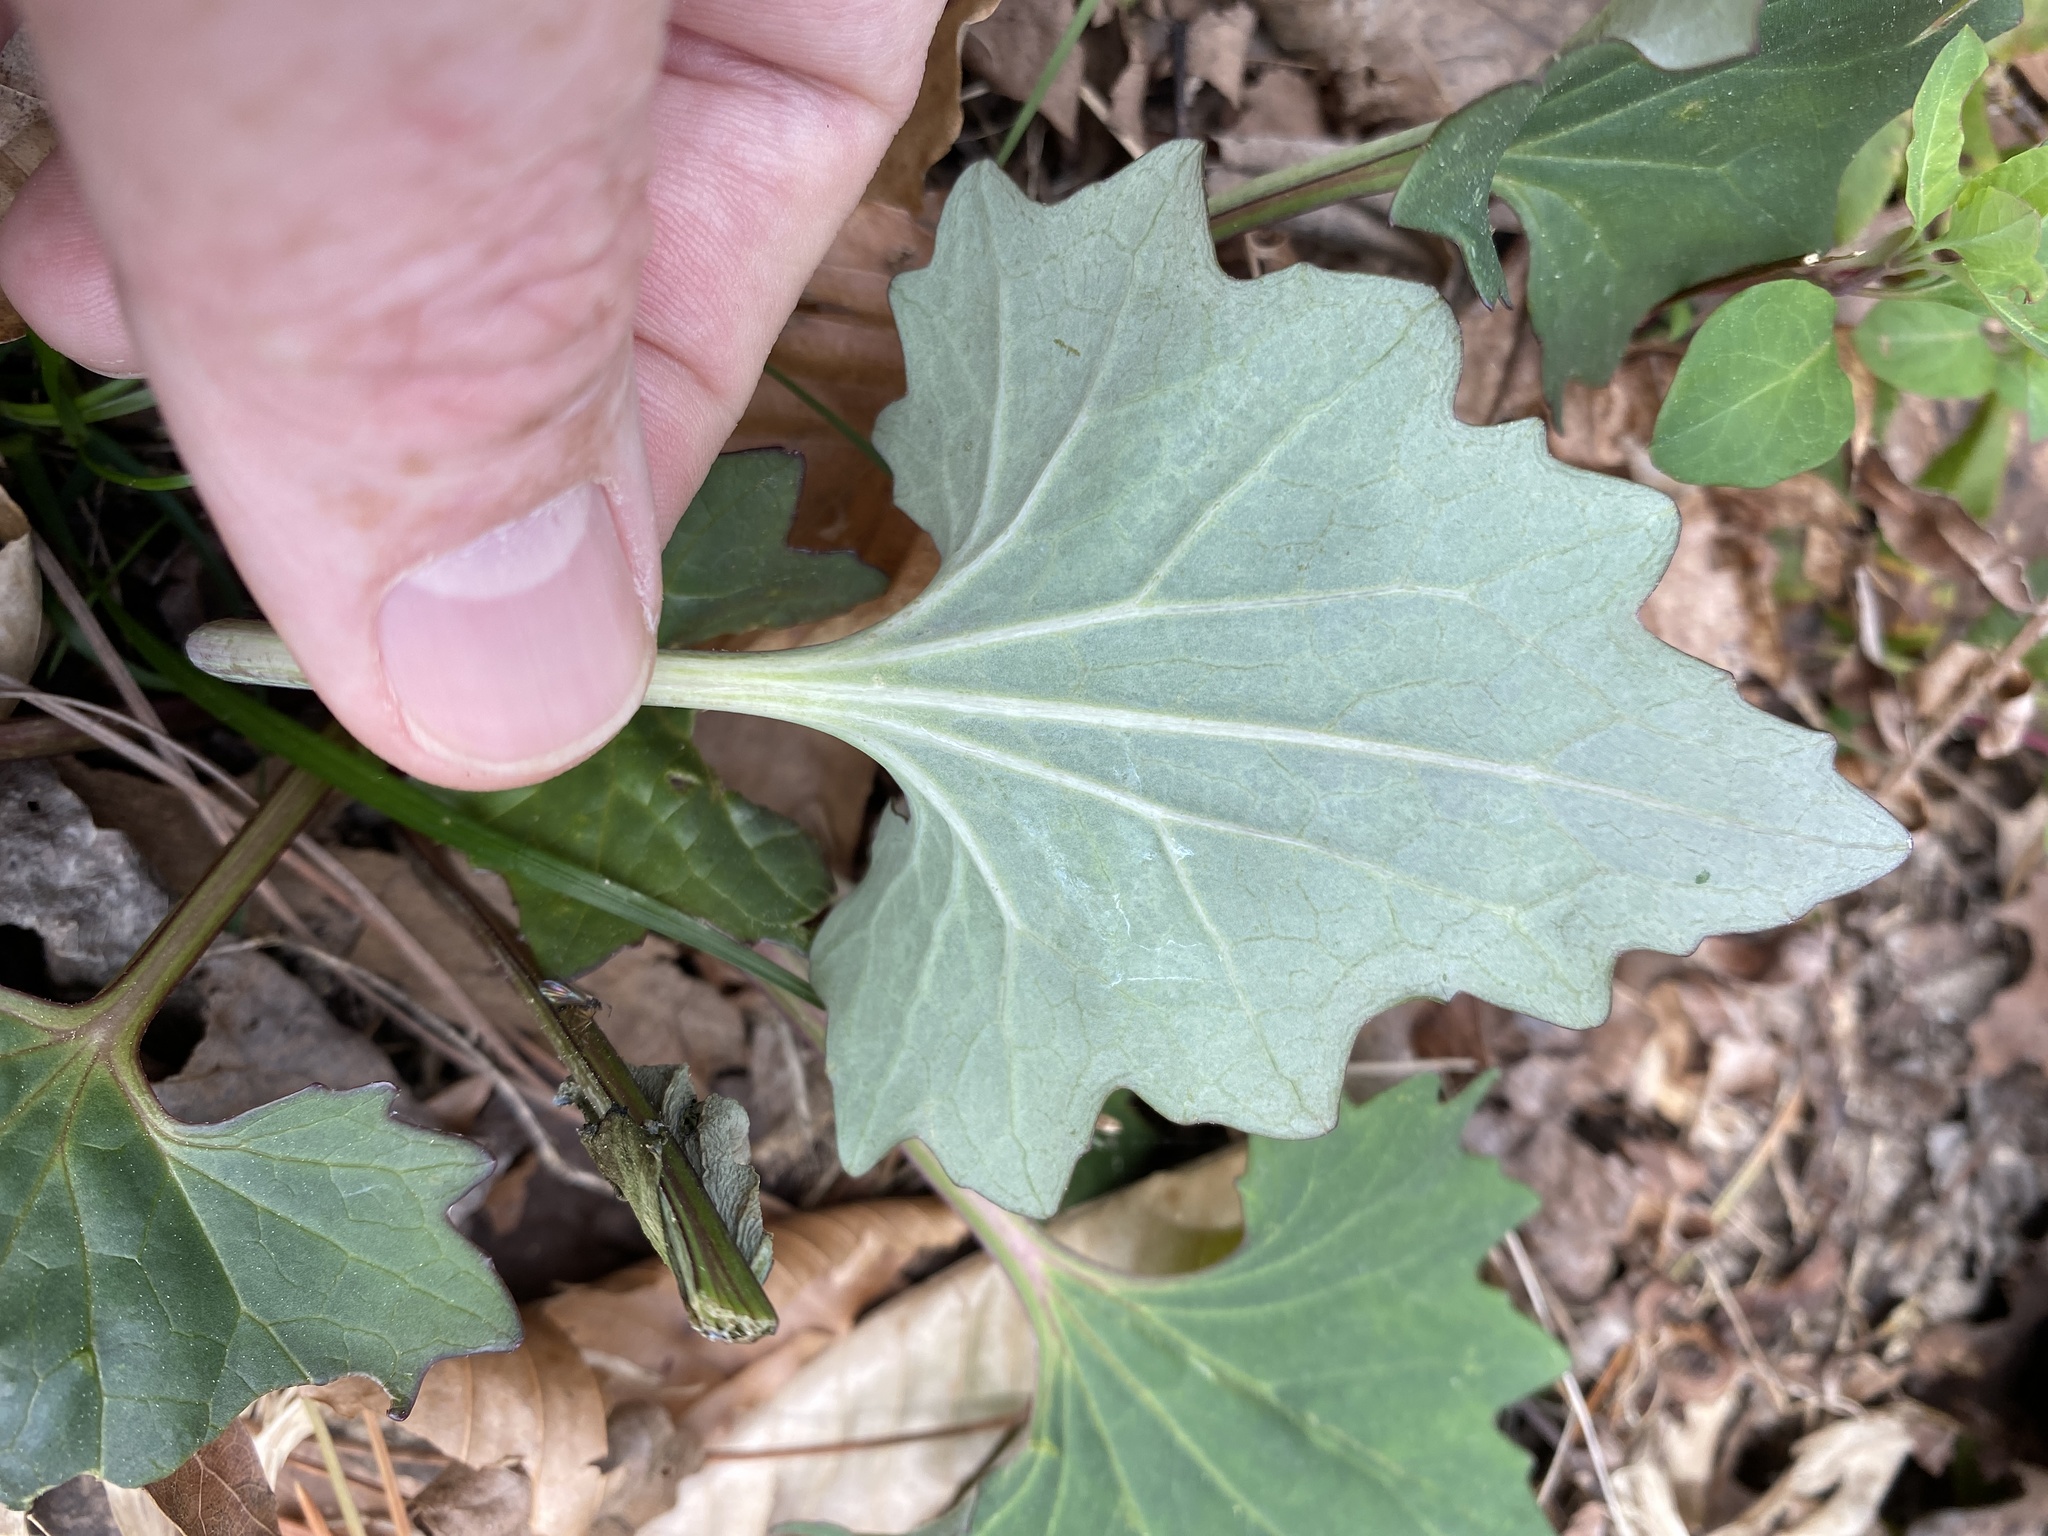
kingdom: Plantae
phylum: Tracheophyta
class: Magnoliopsida
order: Asterales
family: Asteraceae
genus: Arnoglossum
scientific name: Arnoglossum atriplicifolium
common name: Pale indian-plantain
